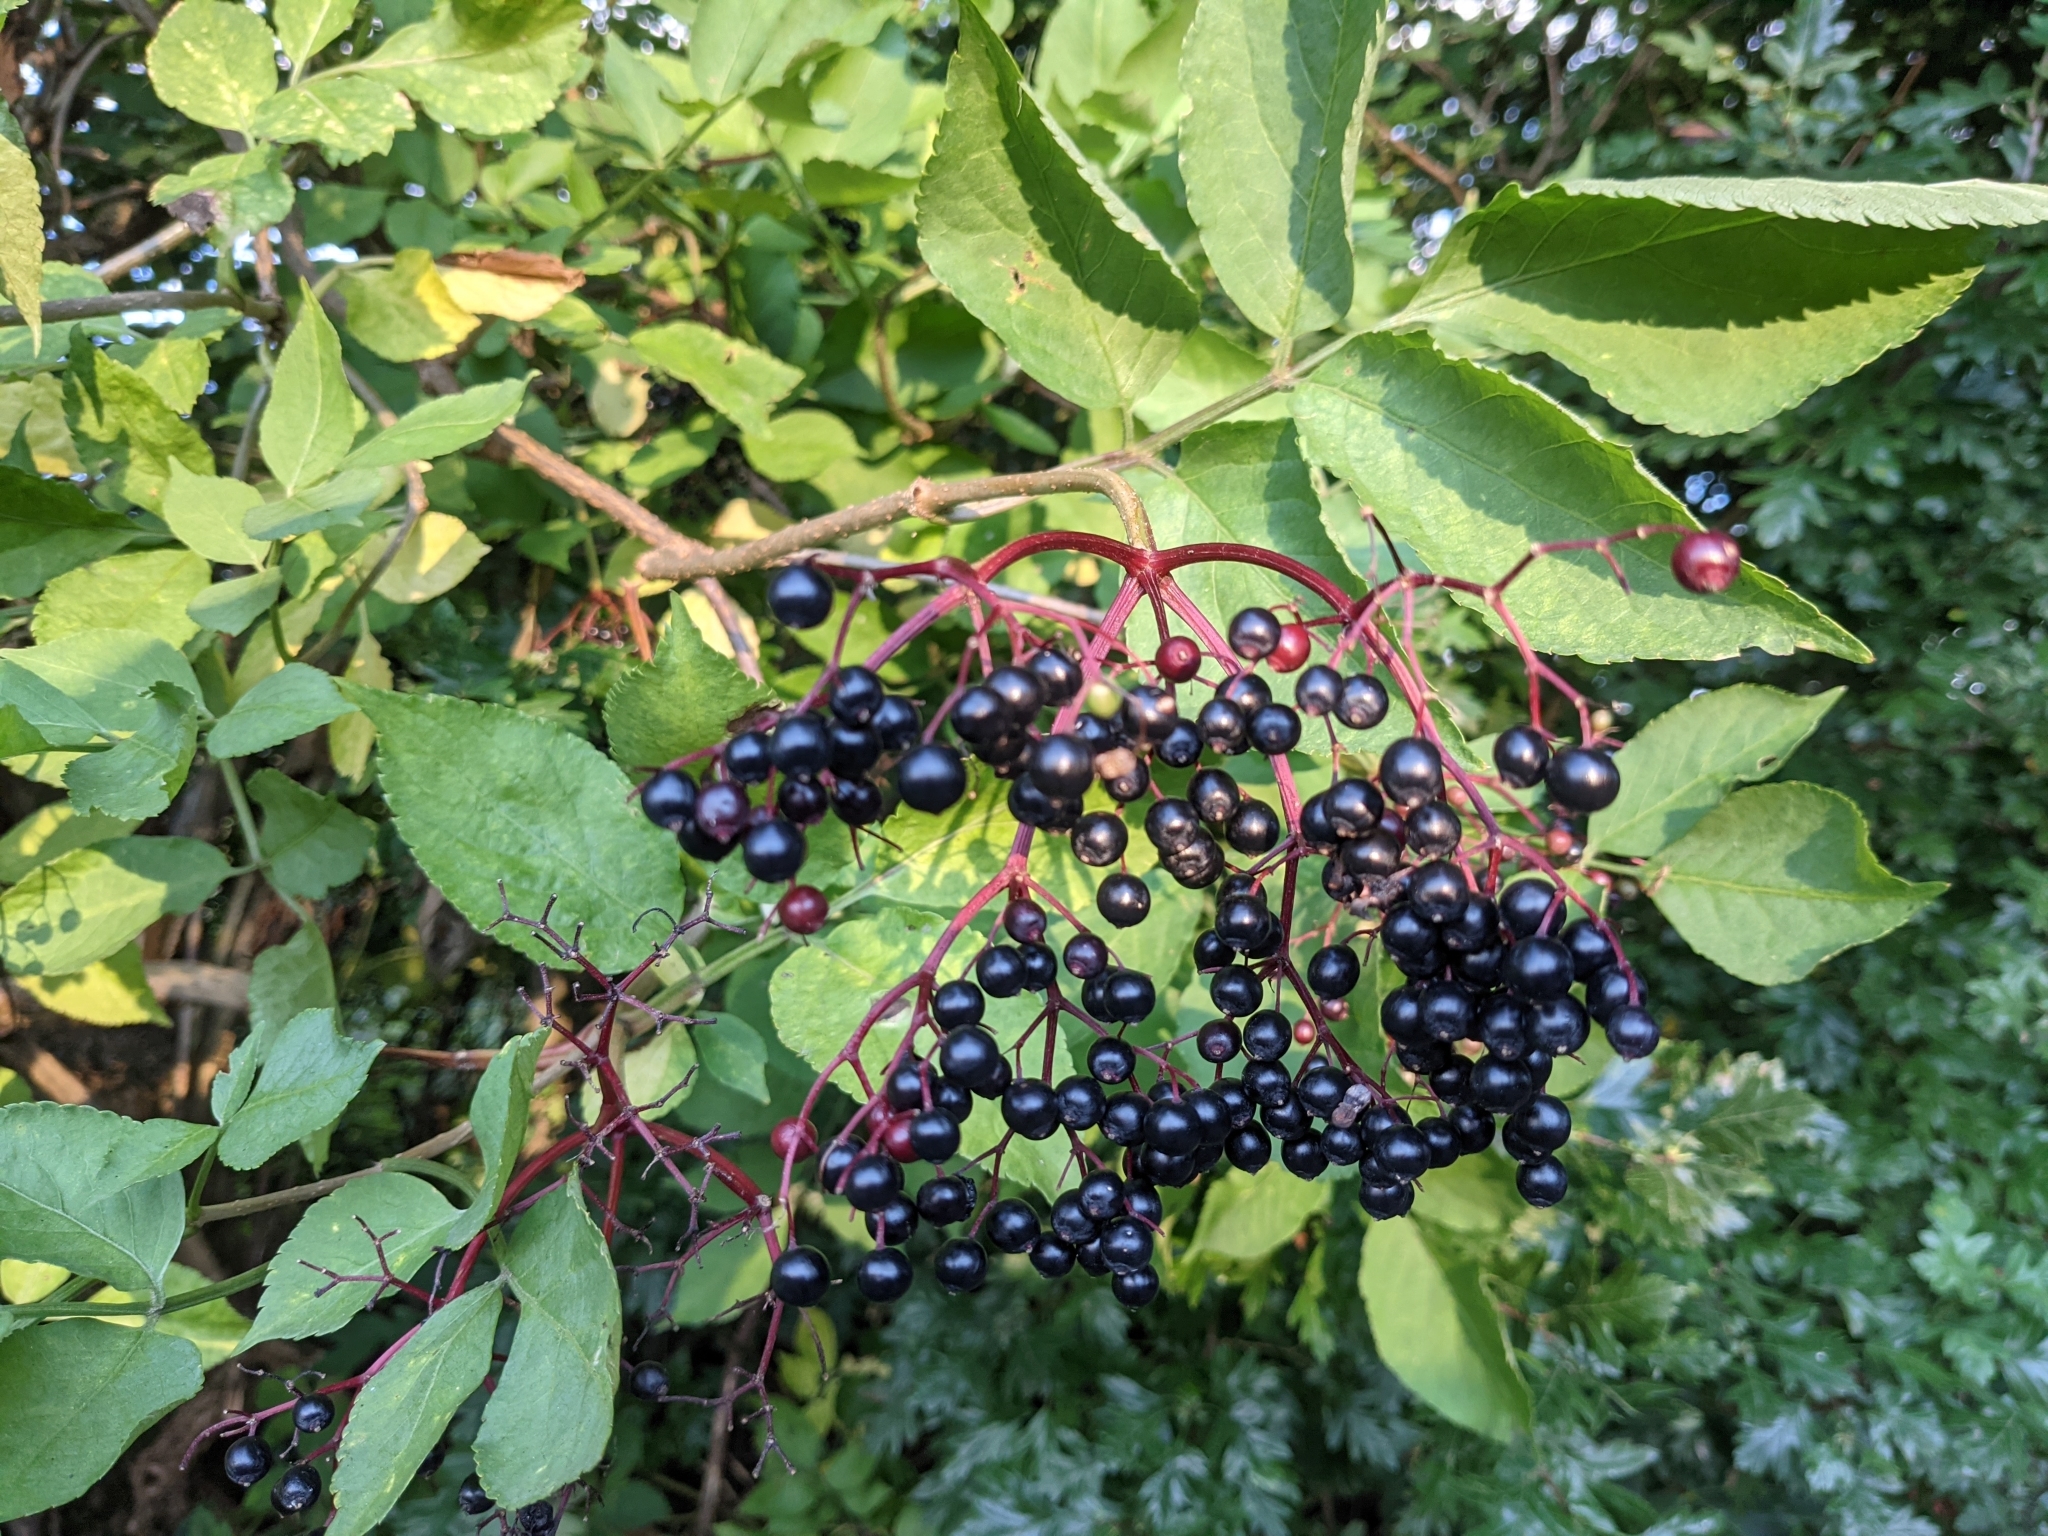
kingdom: Plantae
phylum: Tracheophyta
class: Magnoliopsida
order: Dipsacales
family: Viburnaceae
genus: Sambucus
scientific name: Sambucus nigra
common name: Elder
